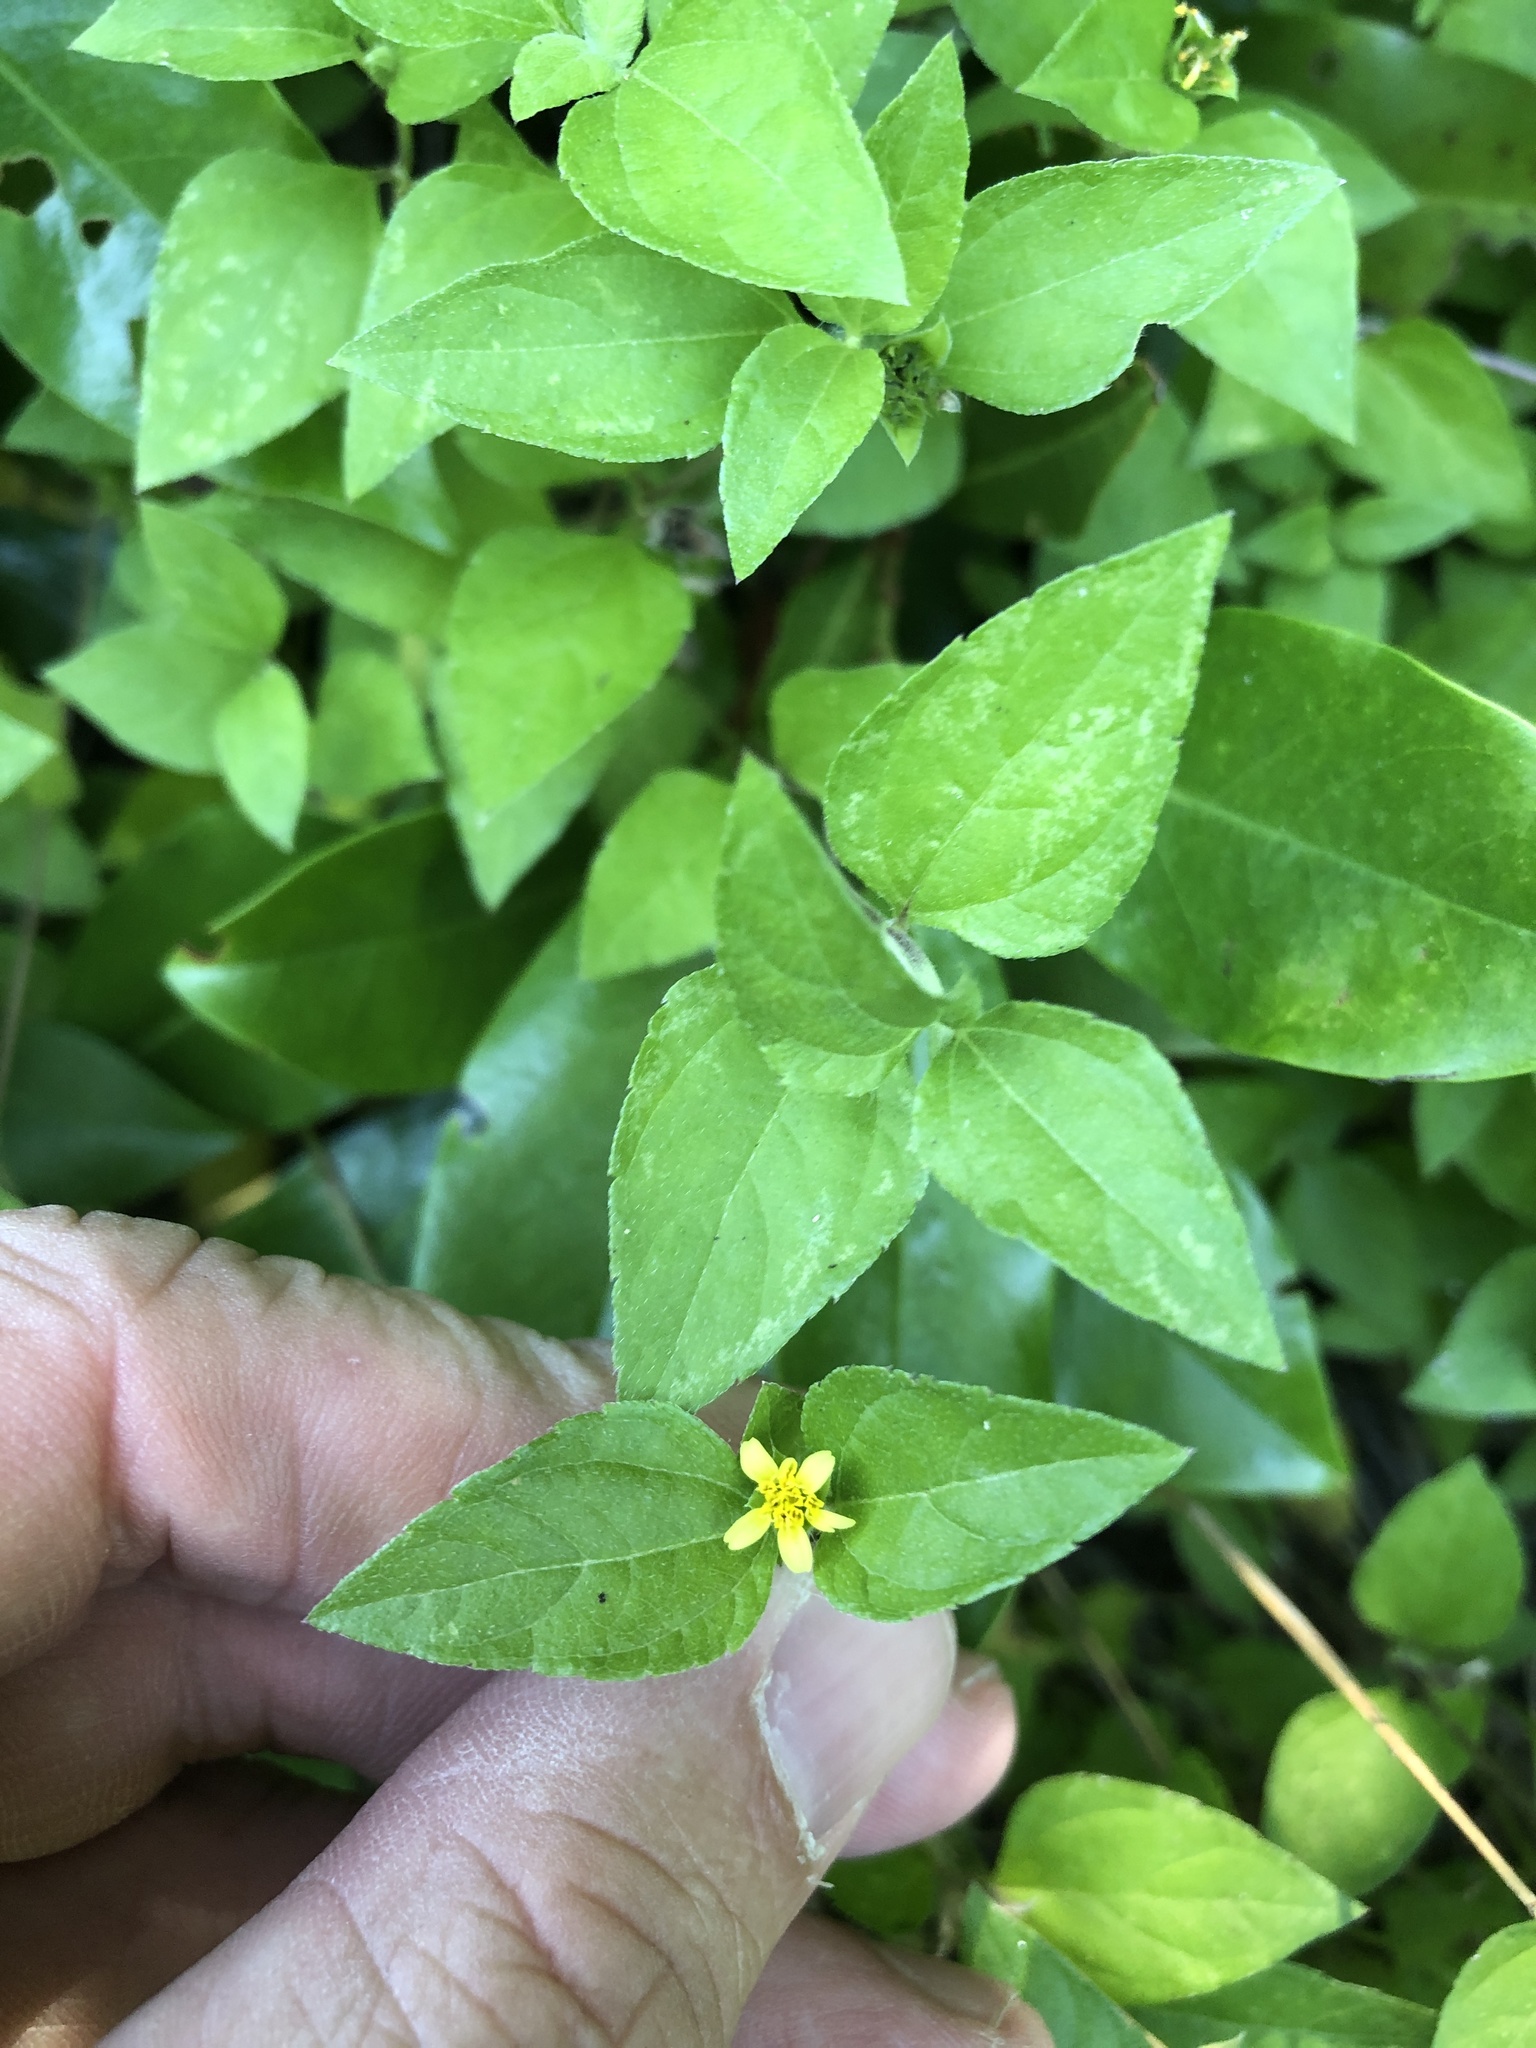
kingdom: Plantae
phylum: Tracheophyta
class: Magnoliopsida
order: Asterales
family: Asteraceae
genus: Calyptocarpus
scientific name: Calyptocarpus vialis
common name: Straggler daisy
